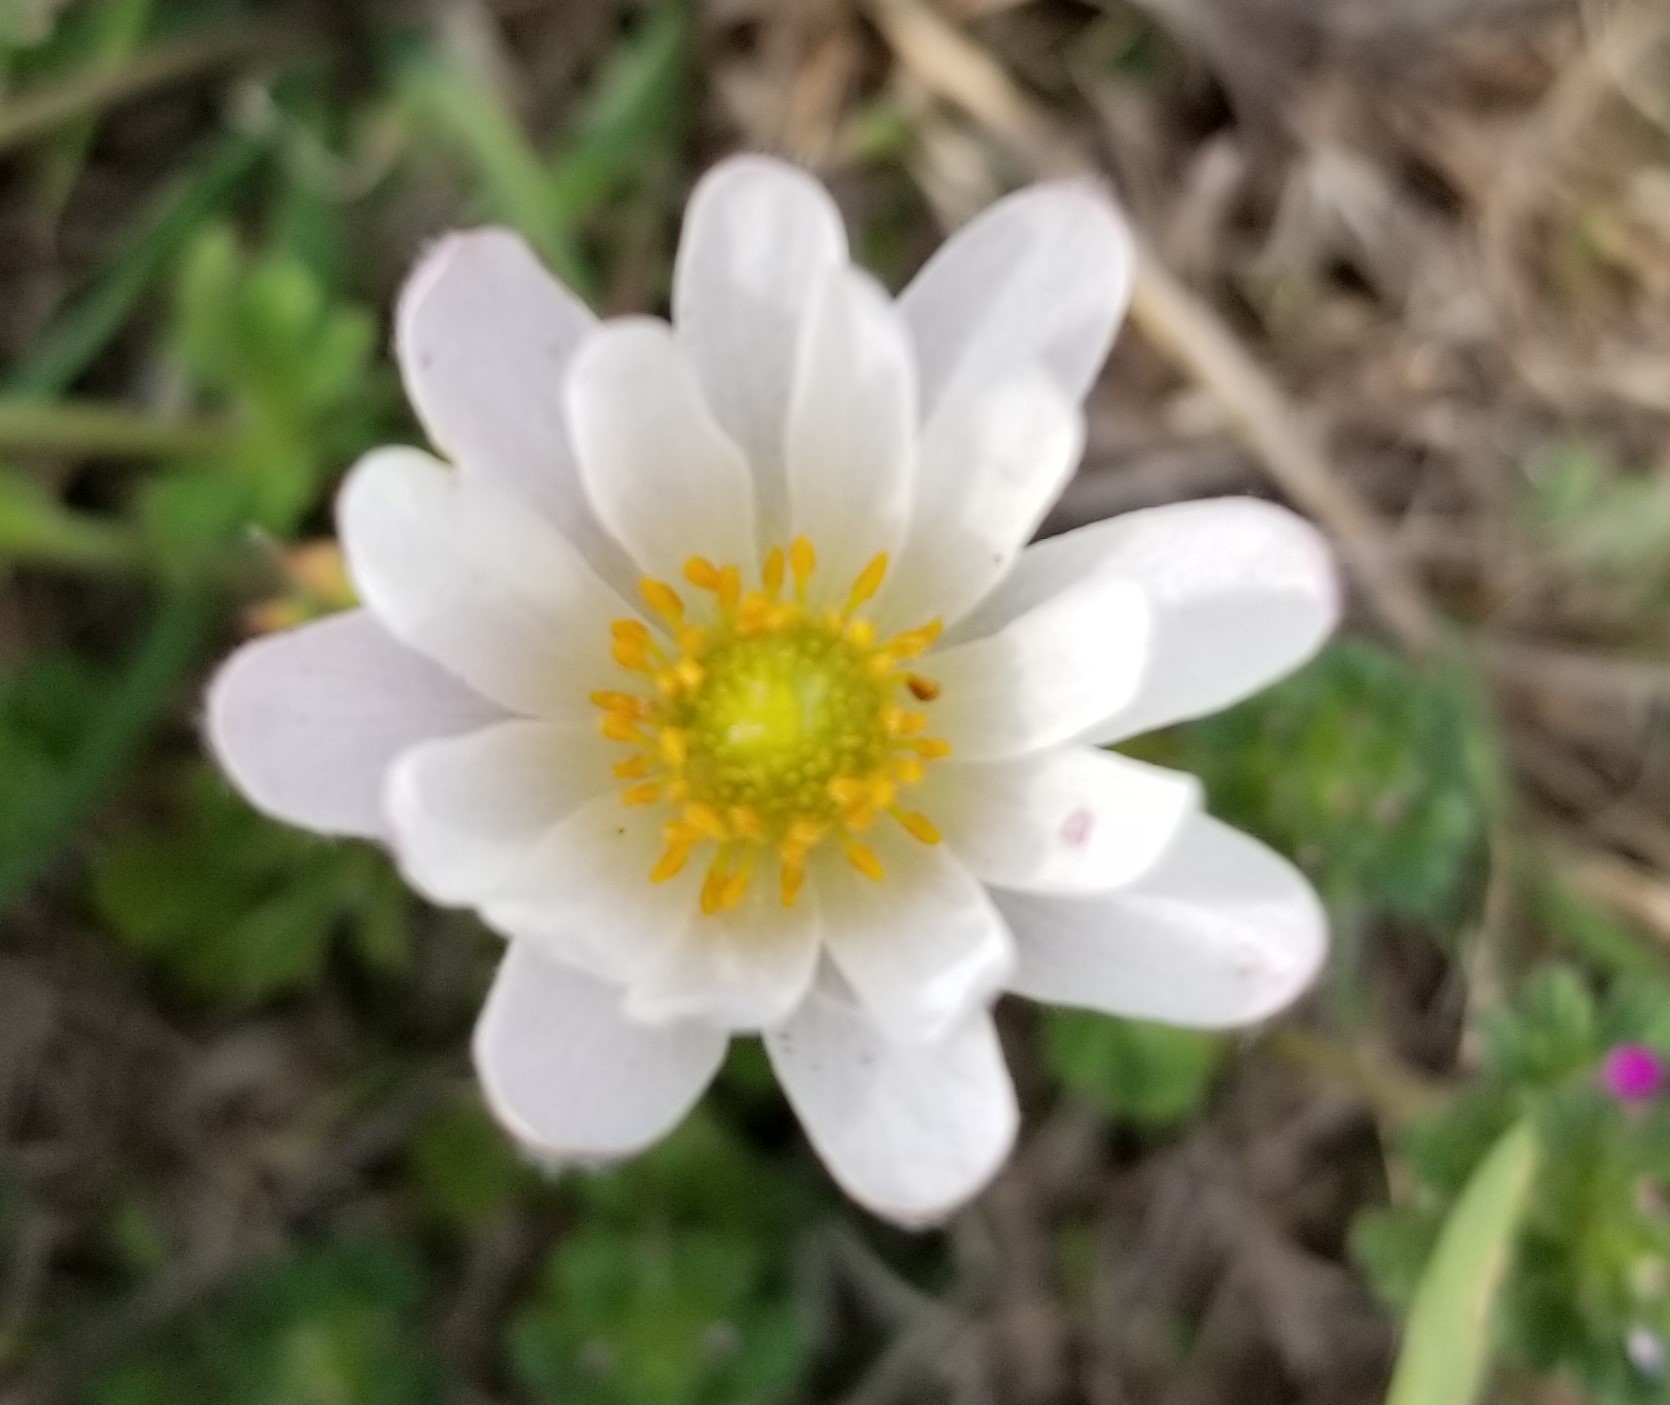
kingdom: Plantae
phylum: Tracheophyta
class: Magnoliopsida
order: Ranunculales
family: Ranunculaceae
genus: Anemone
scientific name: Anemone caroliniana
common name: Carolina anemone
